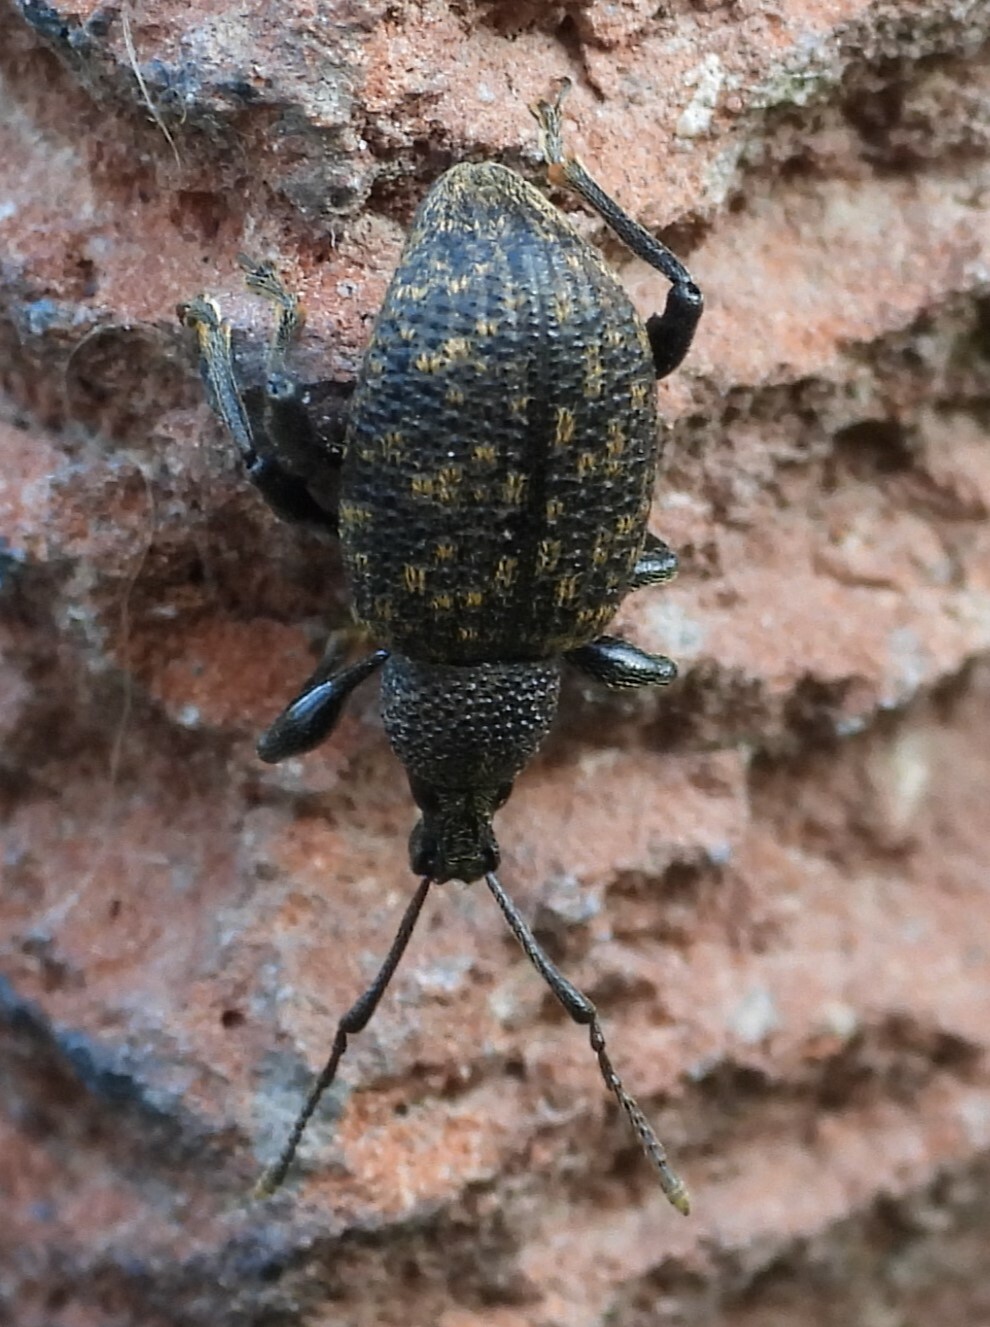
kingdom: Animalia
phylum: Arthropoda
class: Insecta
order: Coleoptera
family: Curculionidae
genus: Otiorhynchus
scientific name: Otiorhynchus sulcatus
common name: Black vine weevil
